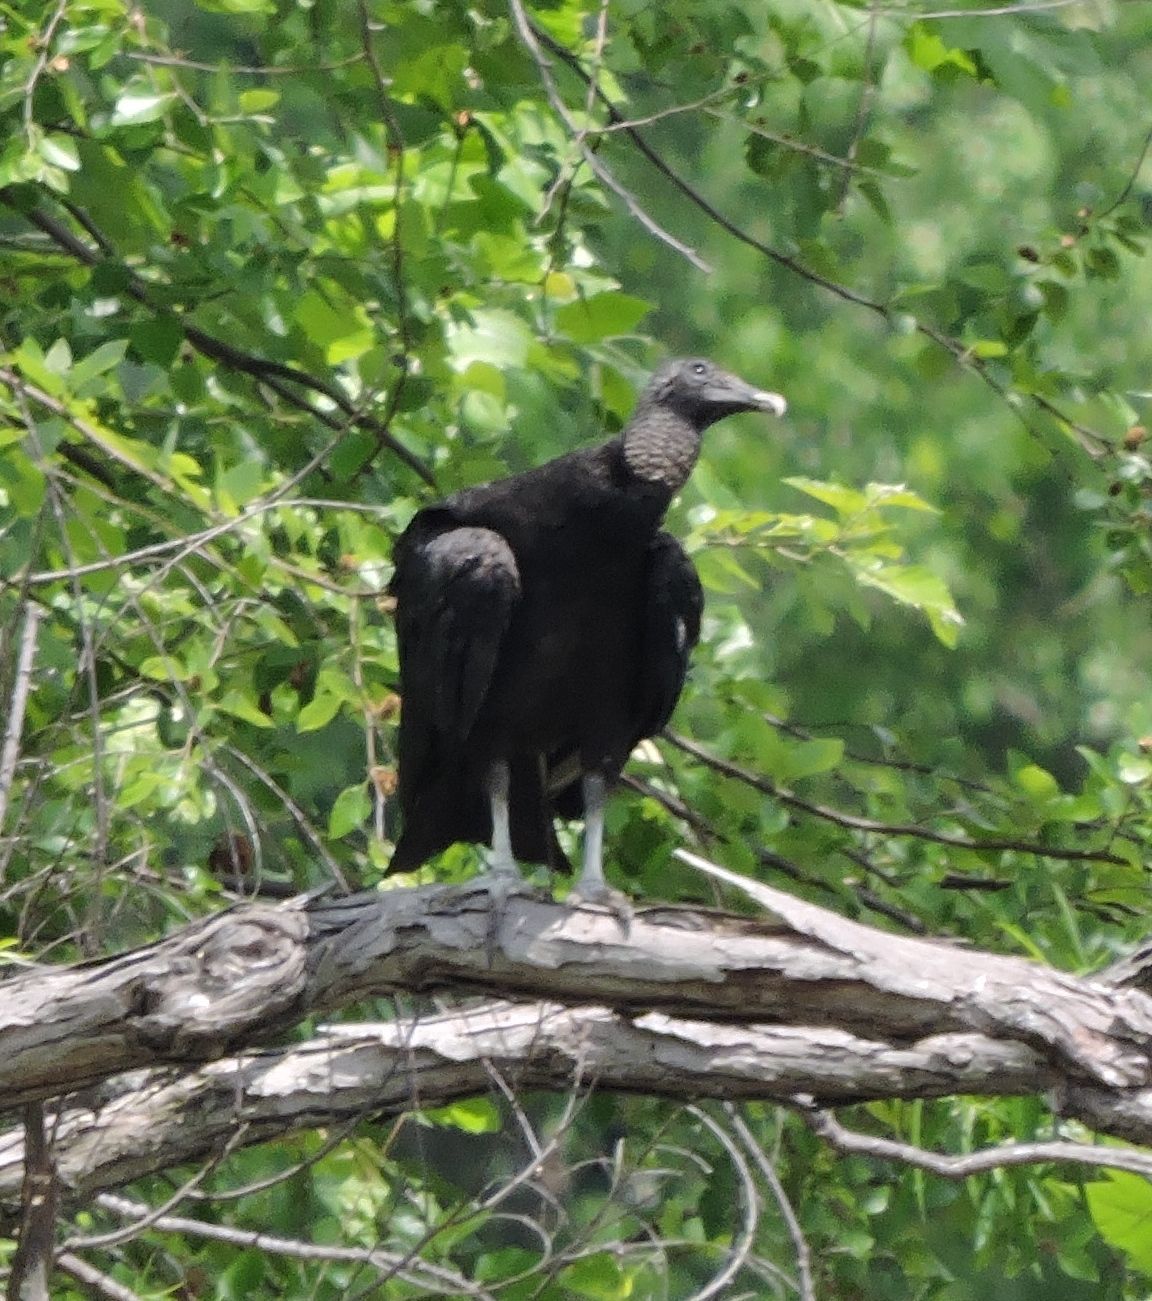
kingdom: Animalia
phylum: Chordata
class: Aves
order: Accipitriformes
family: Cathartidae
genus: Coragyps
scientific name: Coragyps atratus
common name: Black vulture
